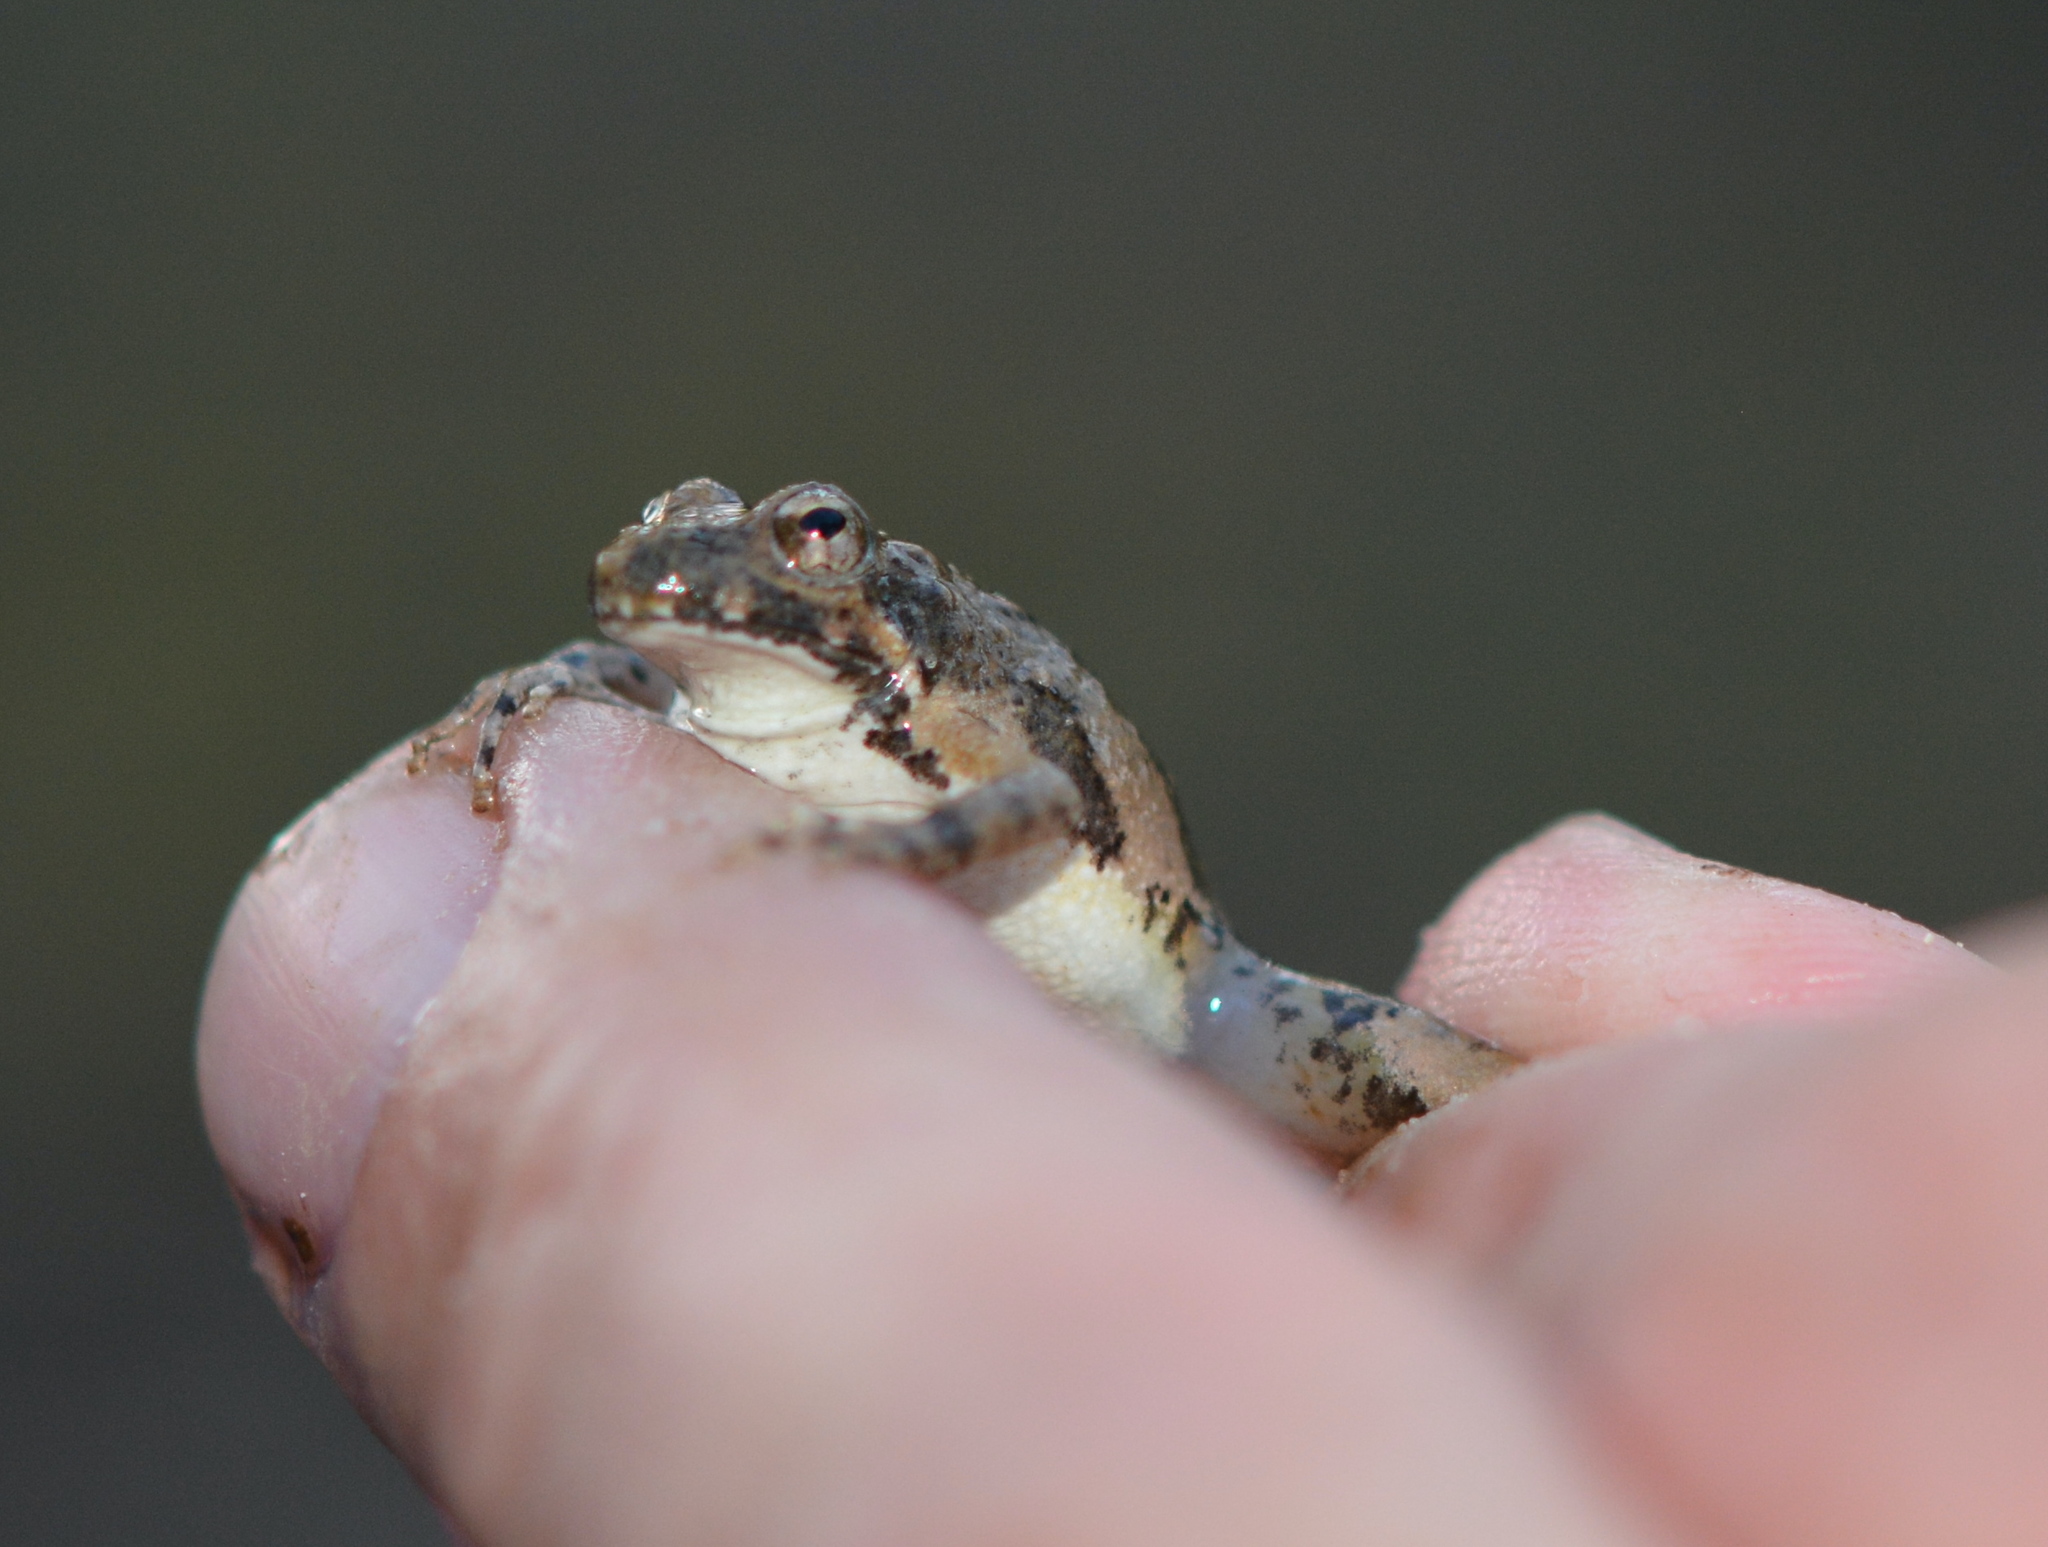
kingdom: Animalia
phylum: Chordata
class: Amphibia
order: Anura
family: Hylidae
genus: Acris
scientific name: Acris blanchardi
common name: Blanchard's cricket frog
